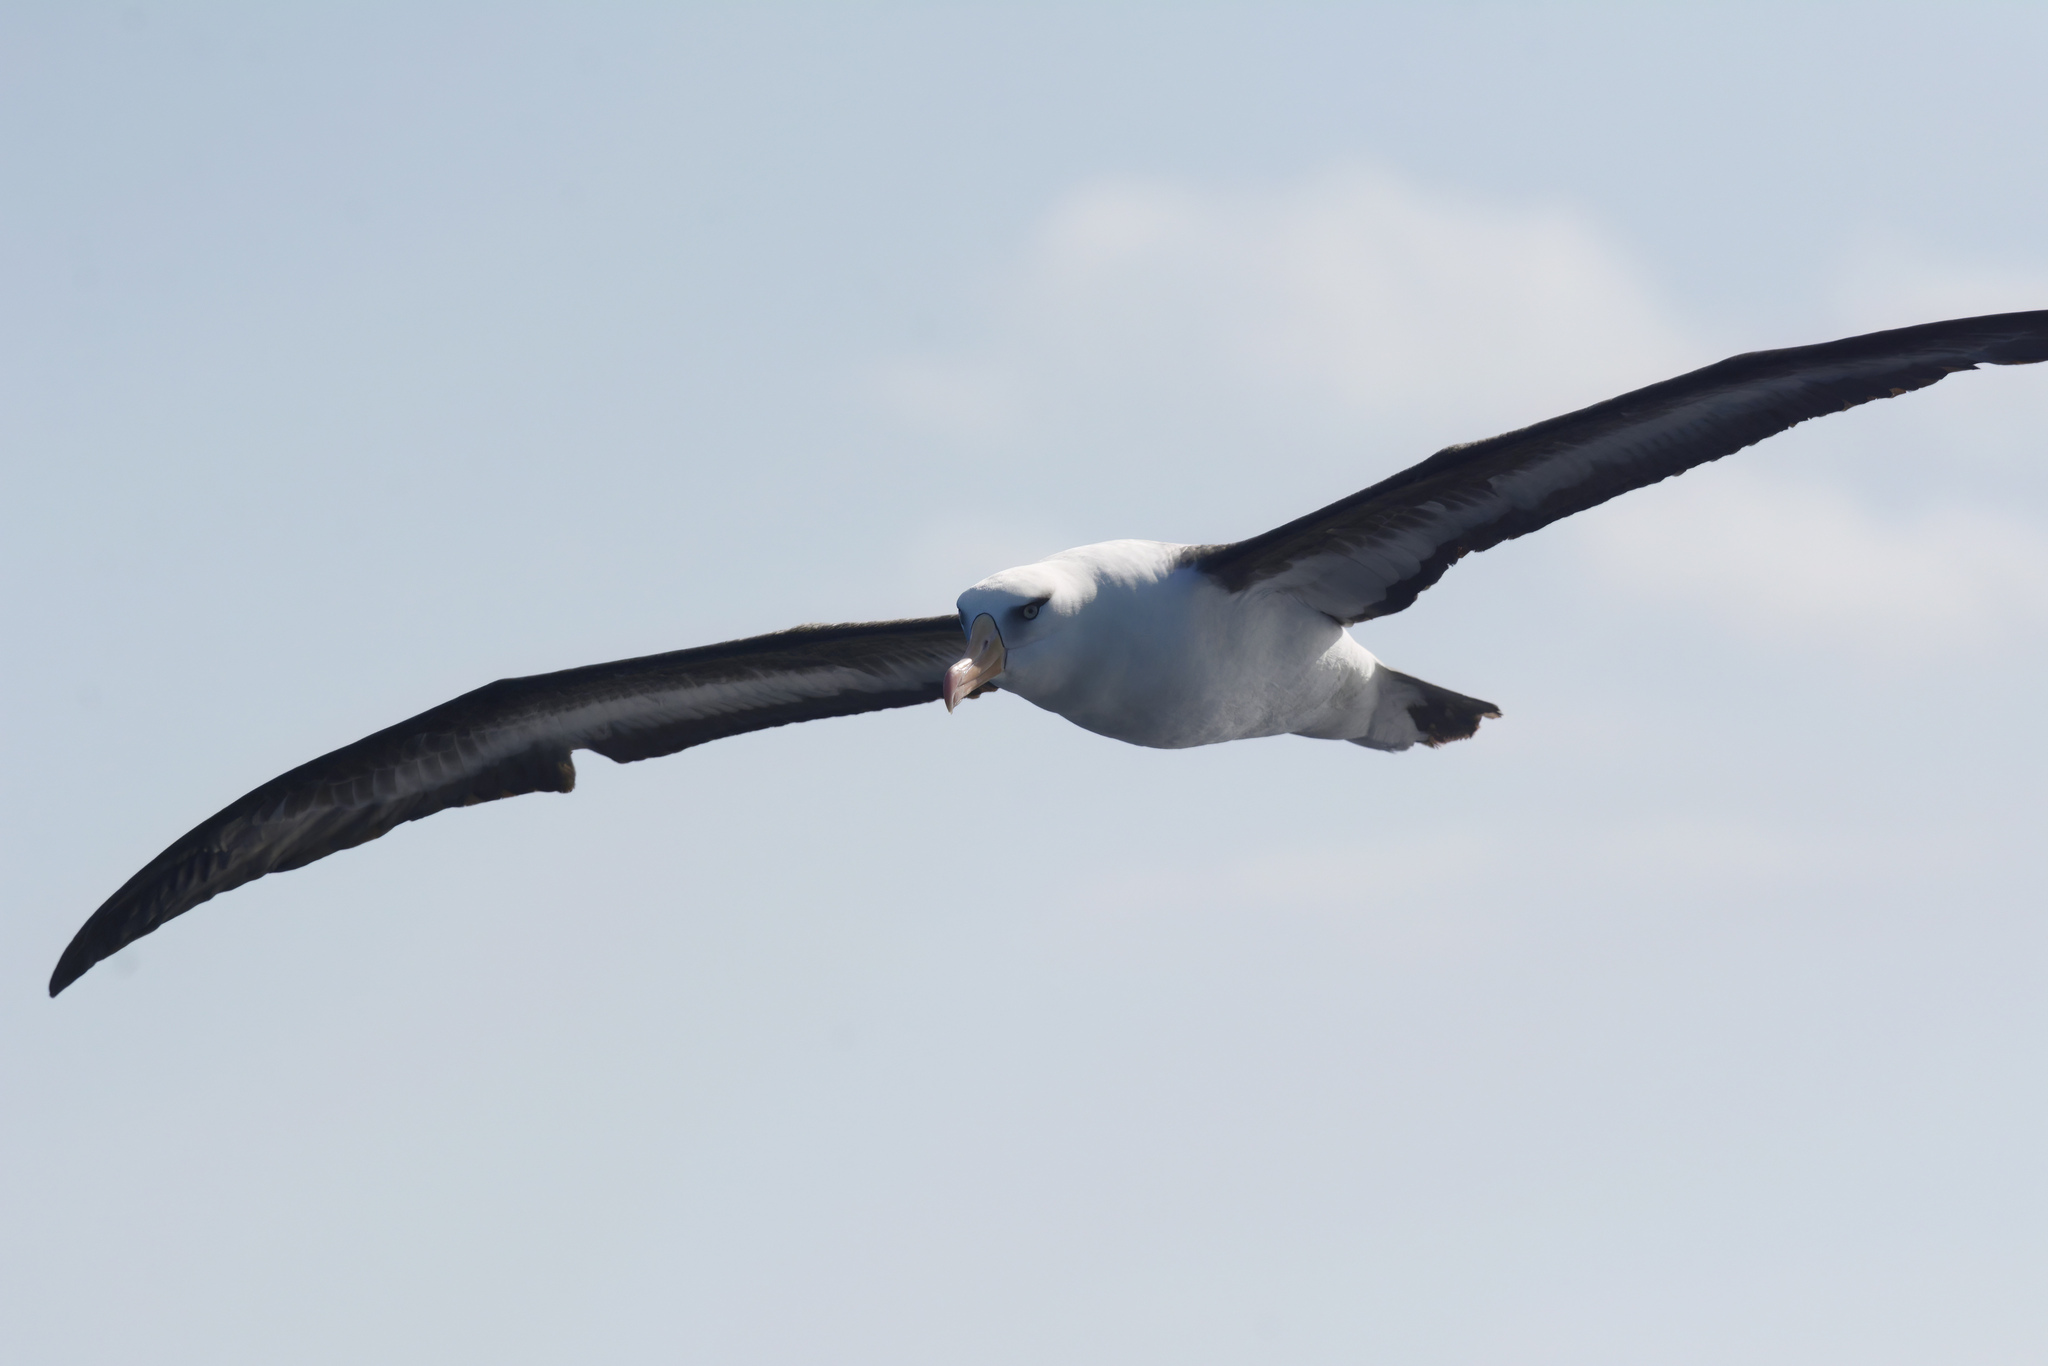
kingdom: Animalia
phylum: Chordata
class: Aves
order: Procellariiformes
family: Diomedeidae
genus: Thalassarche
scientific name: Thalassarche impavida
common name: Campbell albatross
